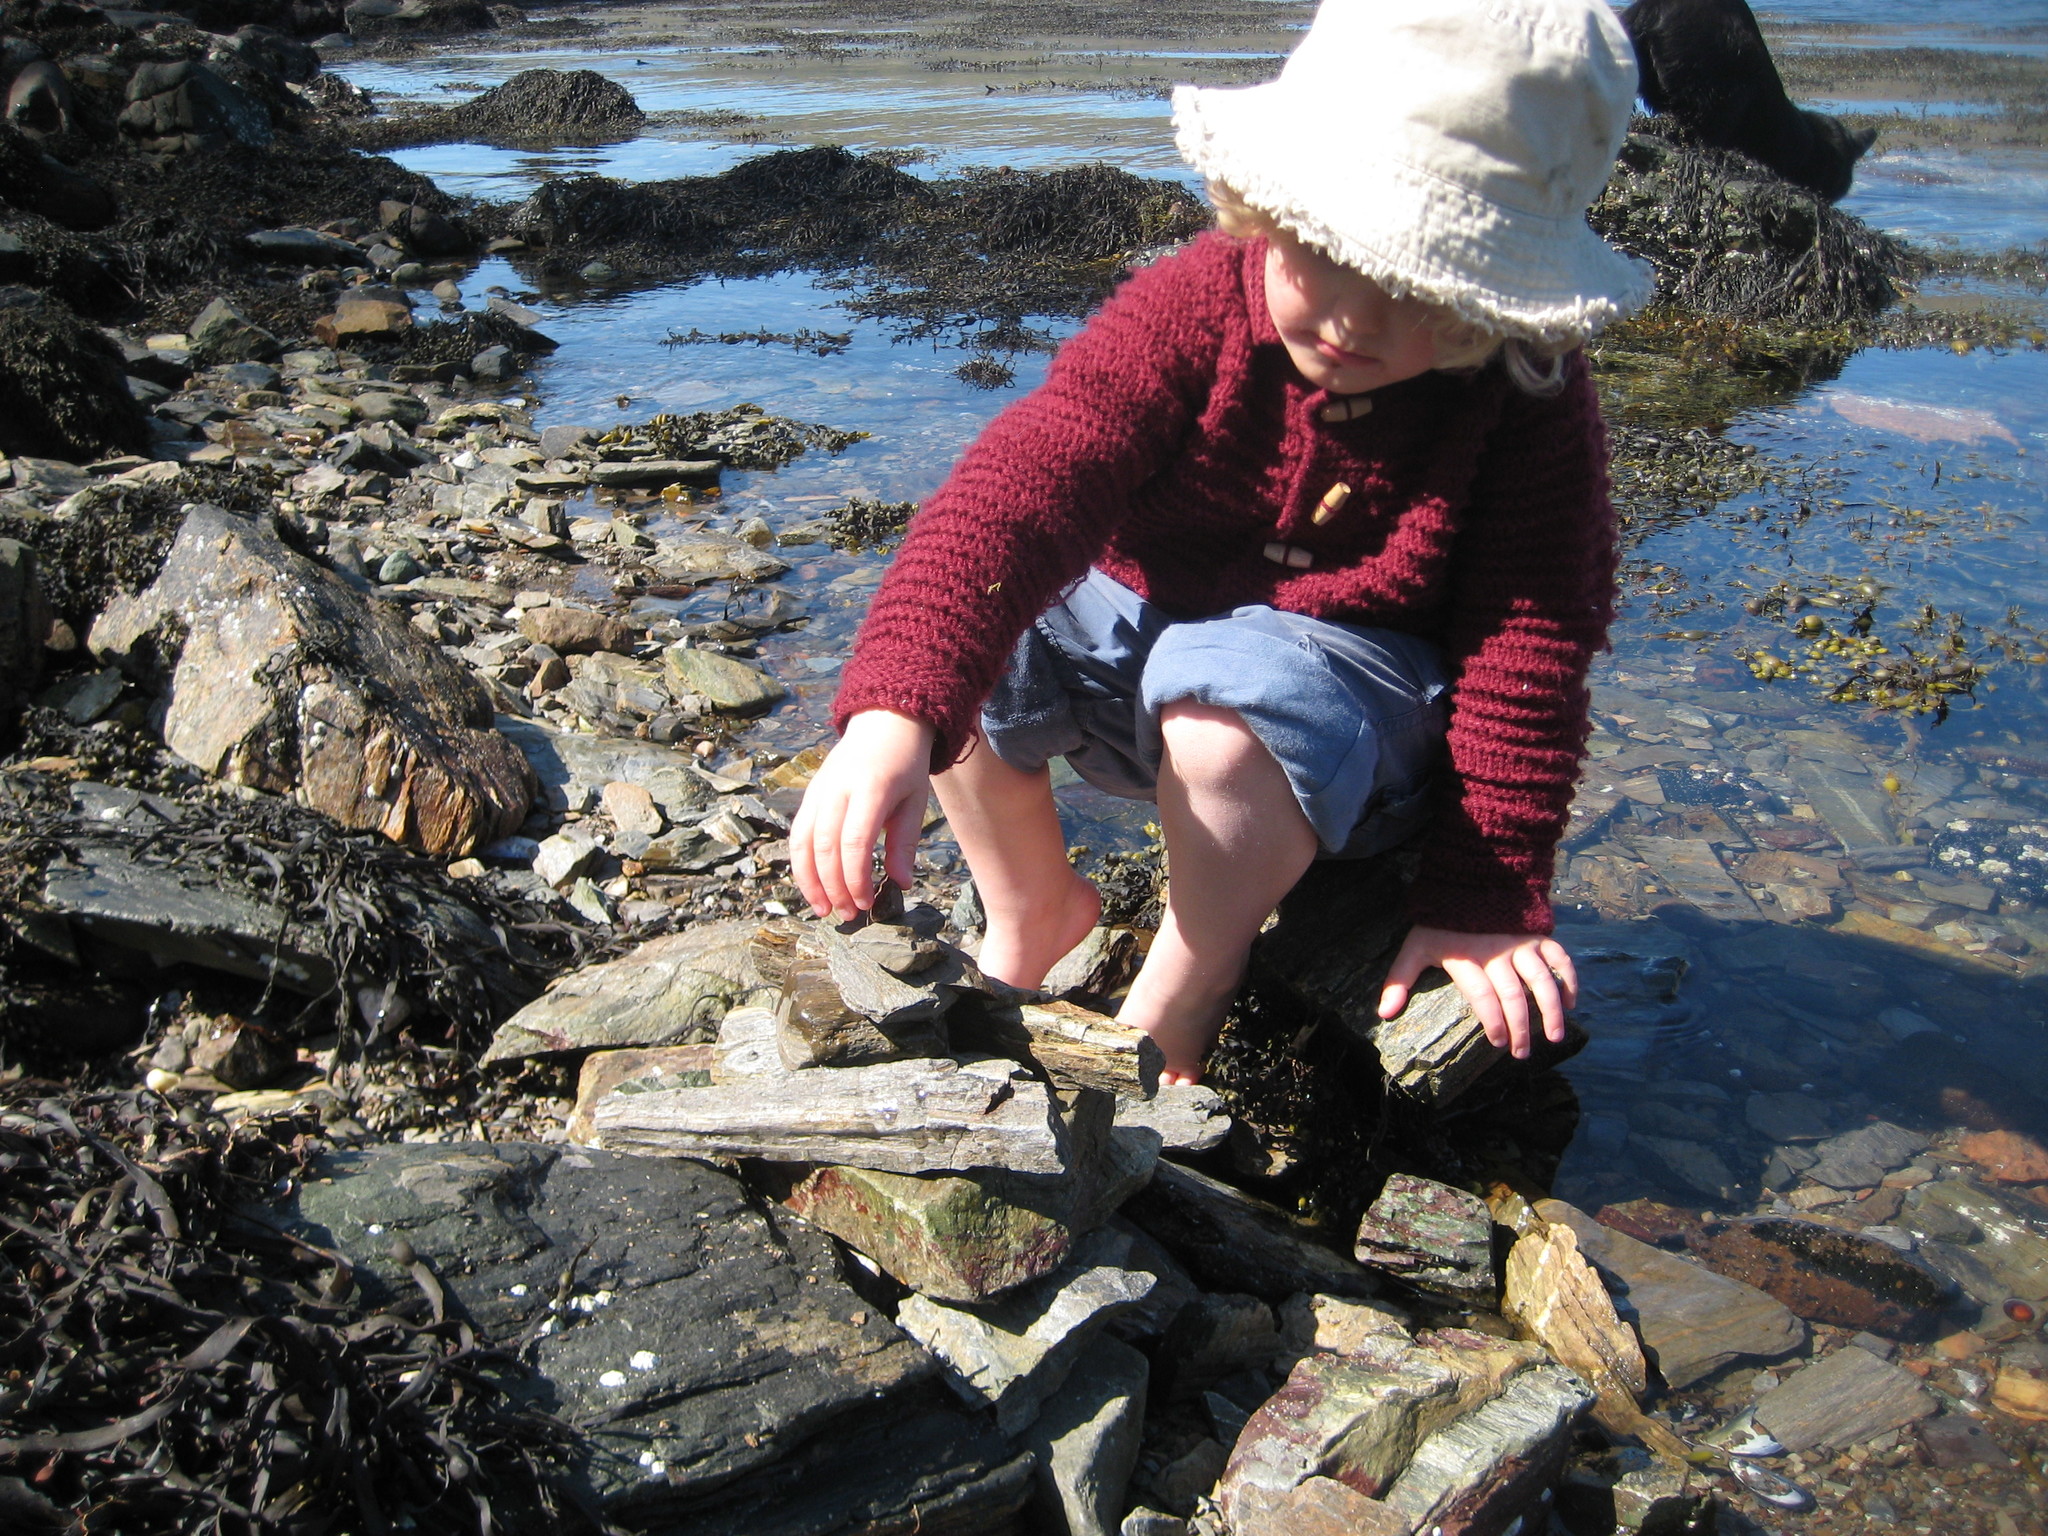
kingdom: Chromista
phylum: Ochrophyta
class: Phaeophyceae
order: Fucales
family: Fucaceae
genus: Fucus
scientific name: Fucus vesiculosus
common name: Bladder wrack
